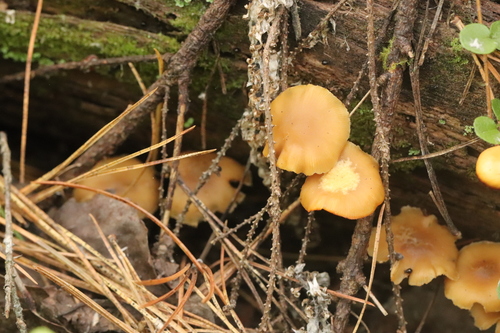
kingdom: Fungi
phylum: Basidiomycota
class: Agaricomycetes
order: Agaricales
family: Strophariaceae
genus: Pholiota
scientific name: Pholiota lignicola
